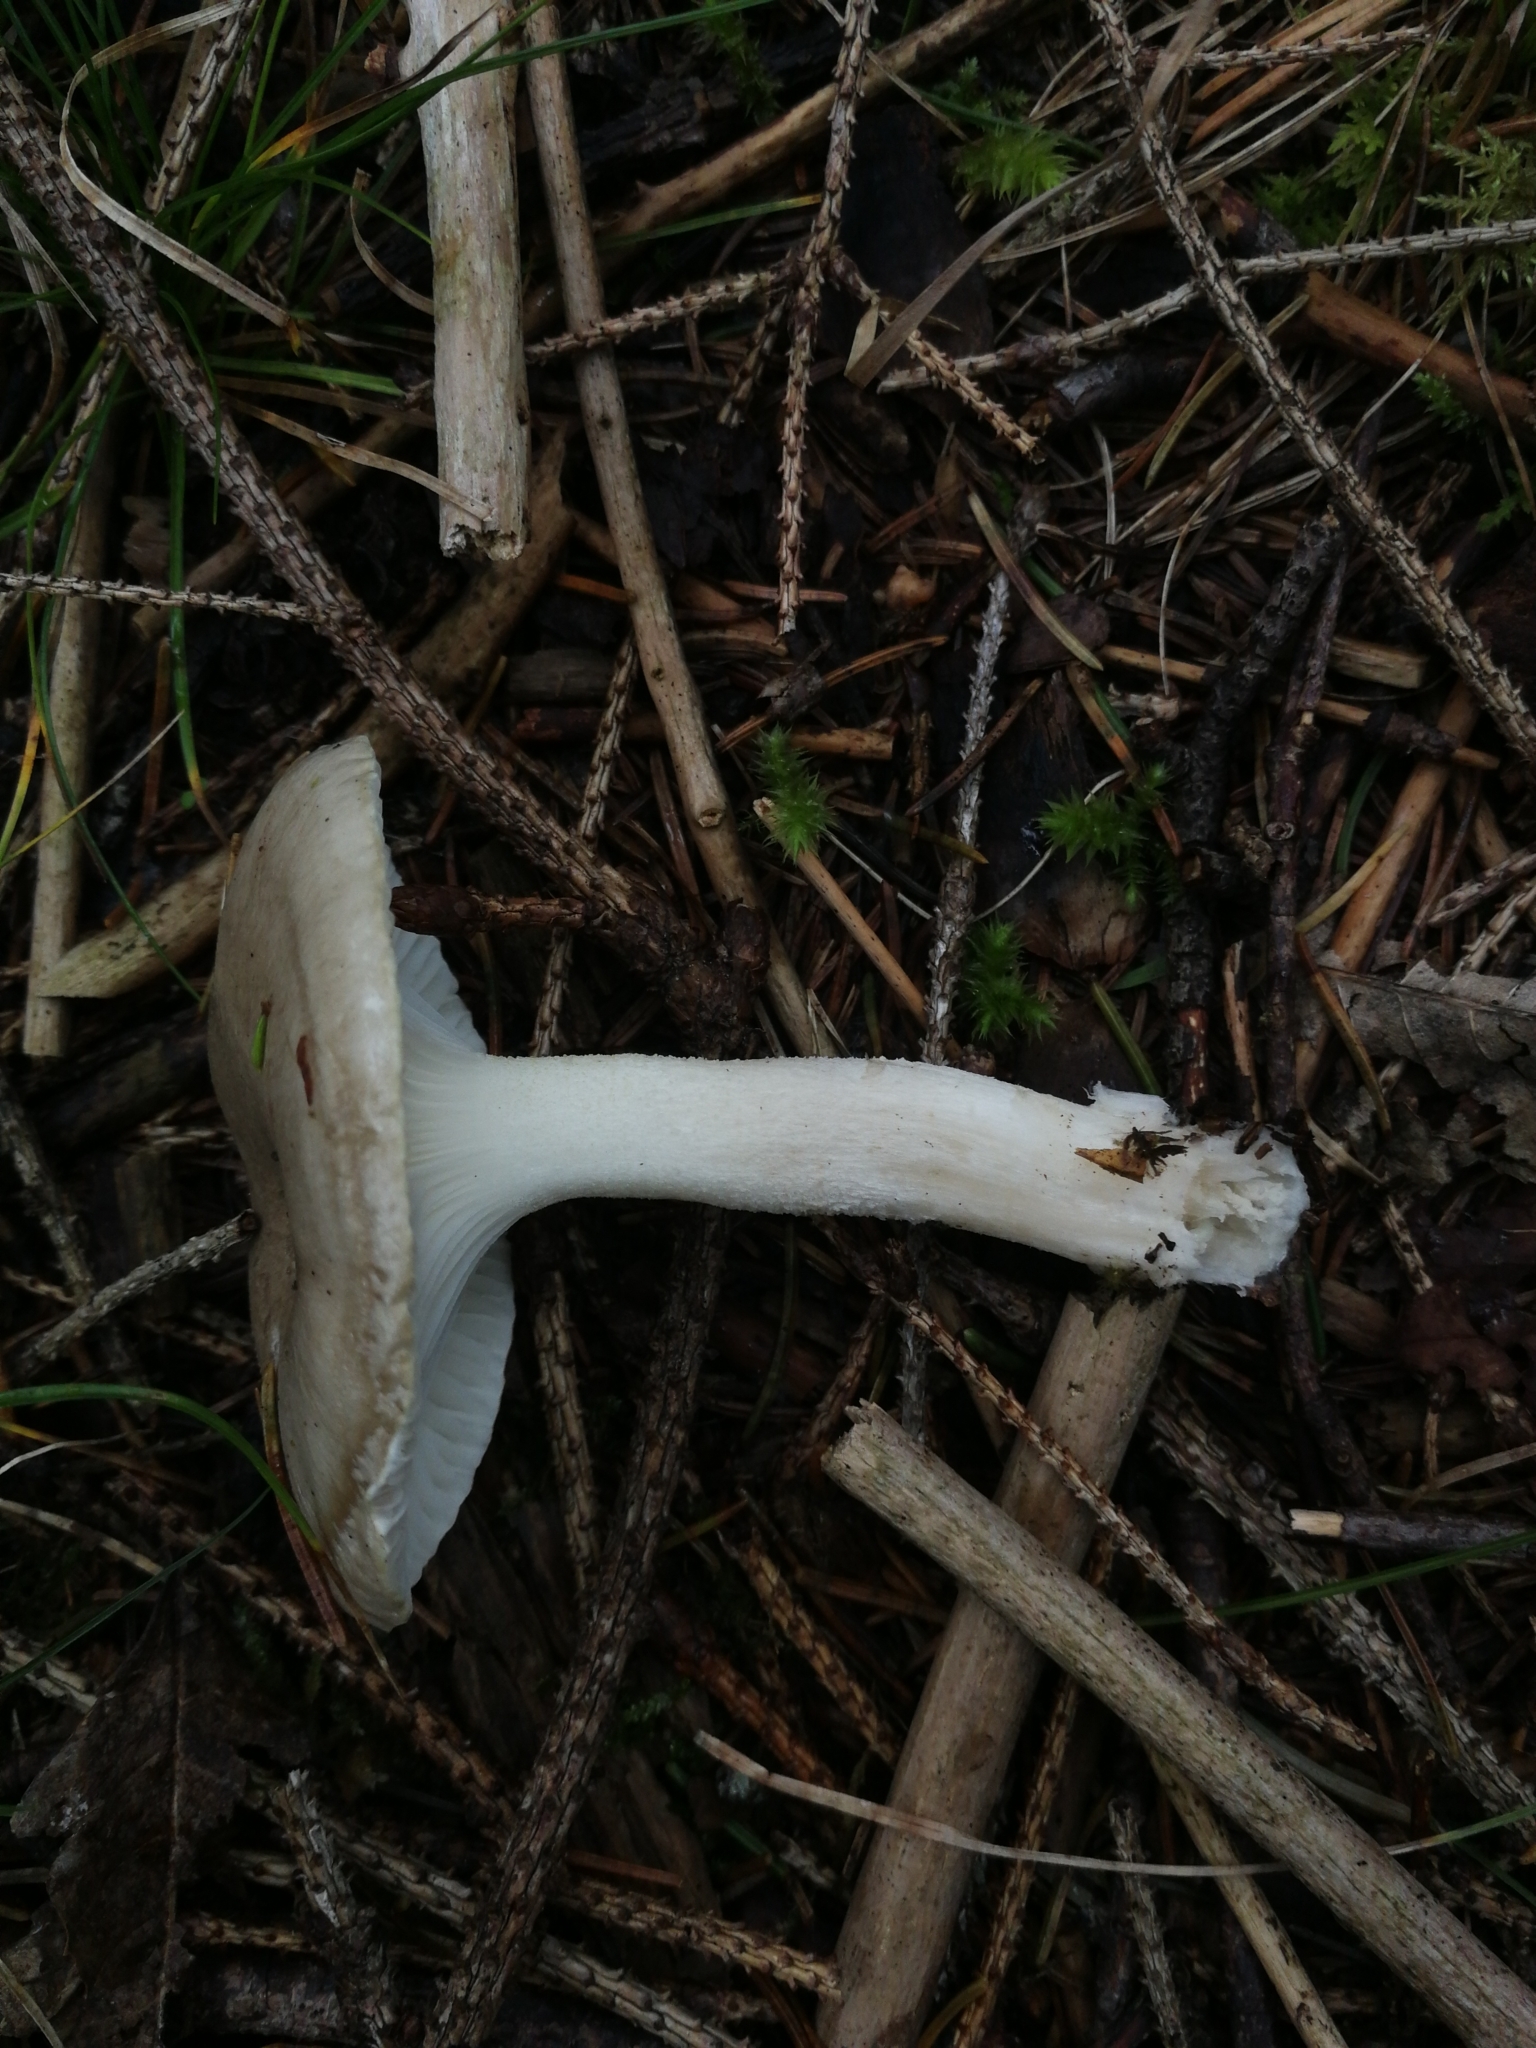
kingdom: Fungi
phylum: Basidiomycota
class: Agaricomycetes
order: Agaricales
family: Hygrophoraceae
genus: Hygrophorus
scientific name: Hygrophorus agathosmus
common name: Almond woodwax
